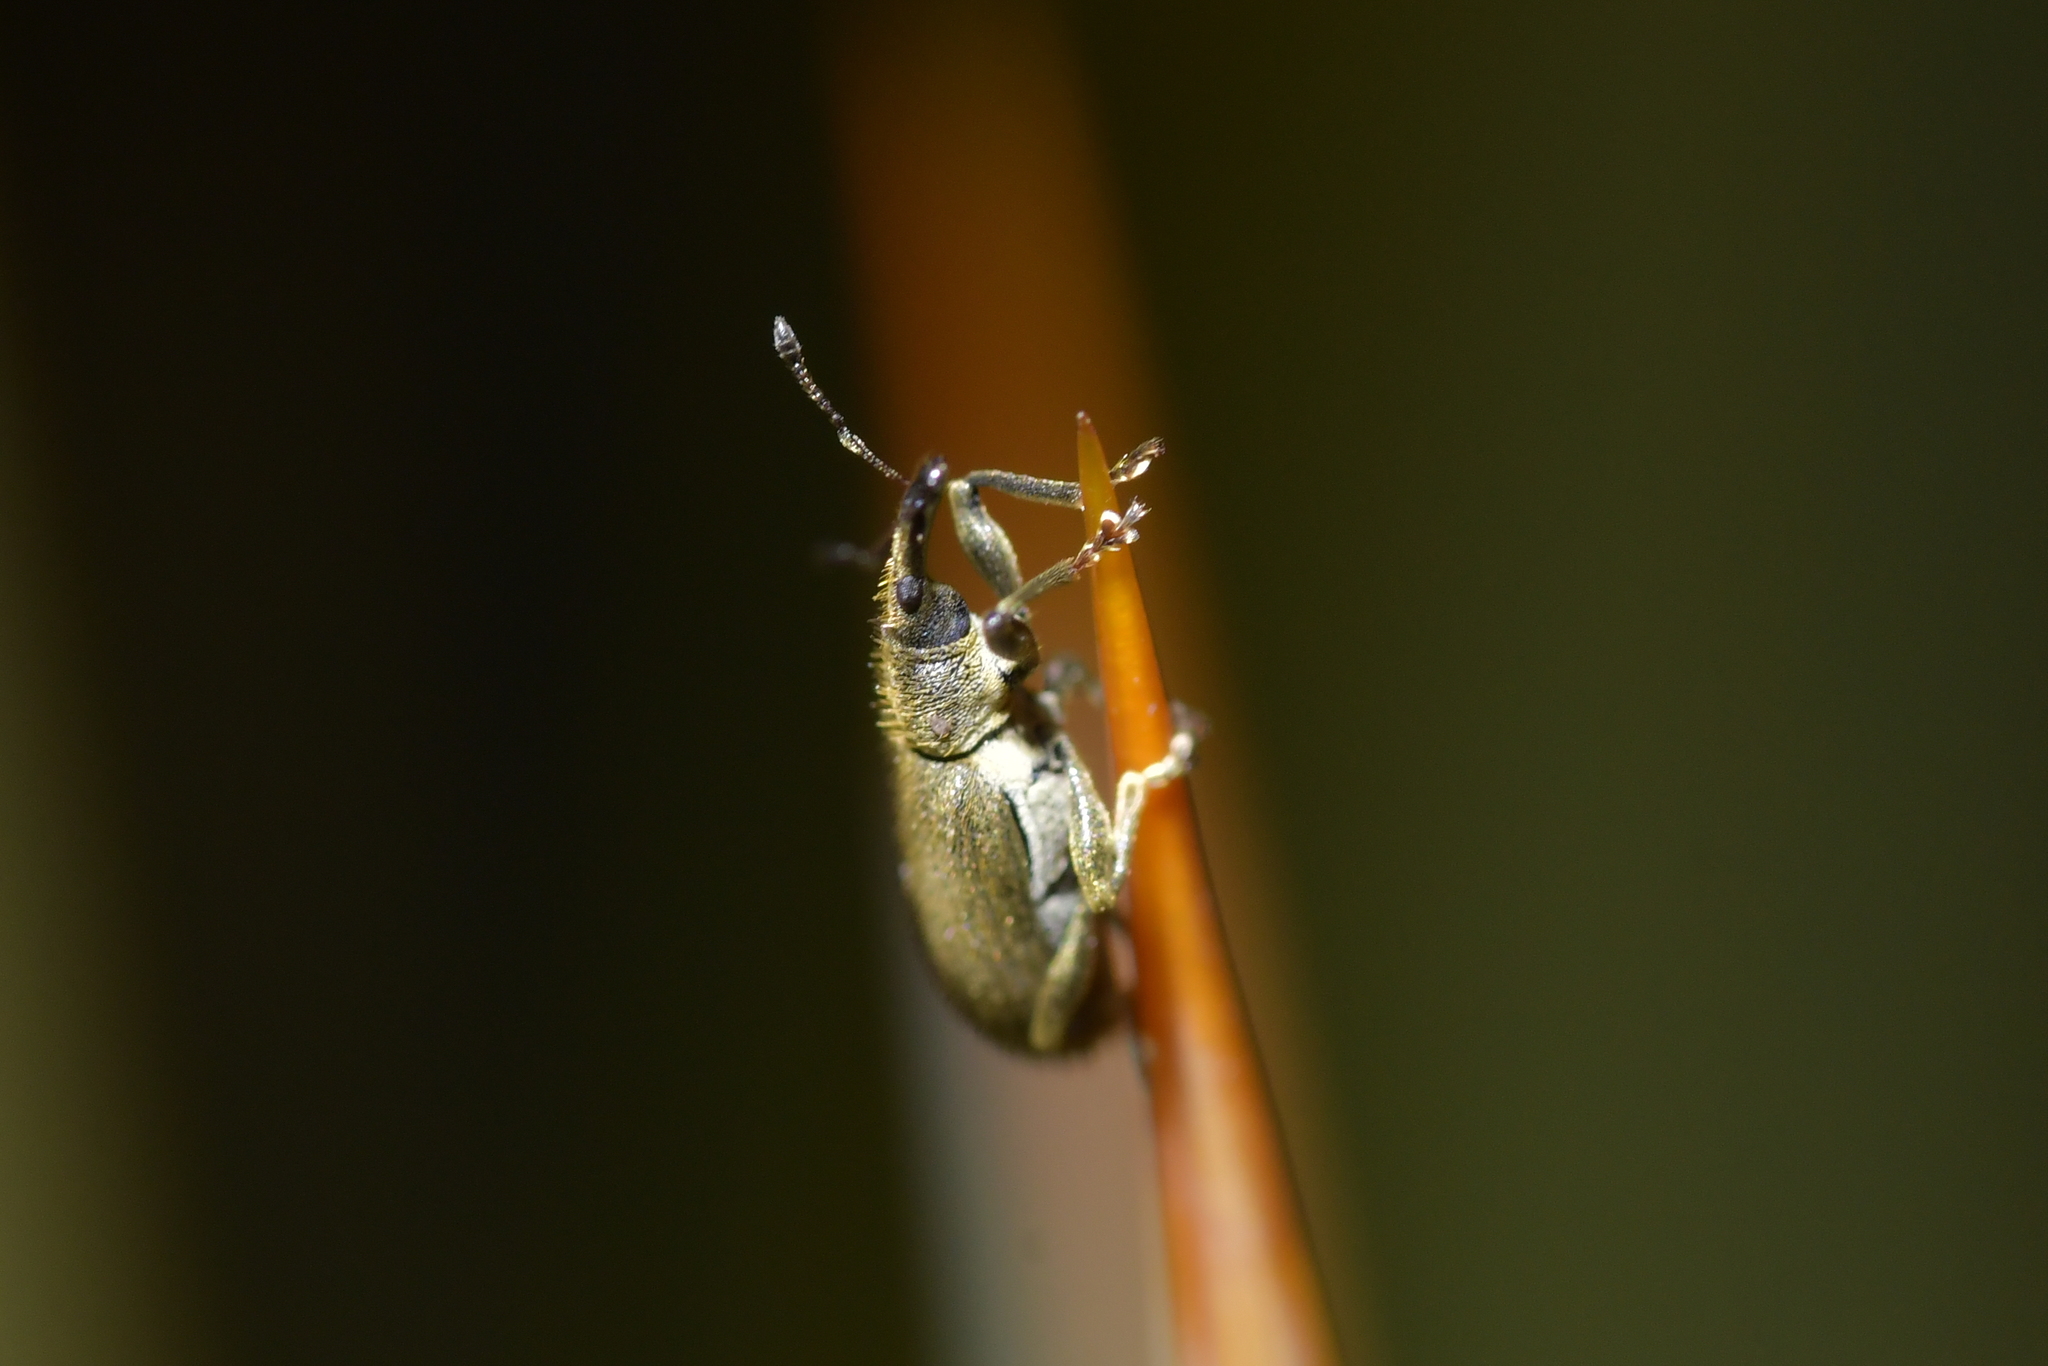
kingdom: Animalia
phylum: Arthropoda
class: Insecta
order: Coleoptera
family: Curculionidae
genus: Eugnomus
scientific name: Eugnomus durvillei
